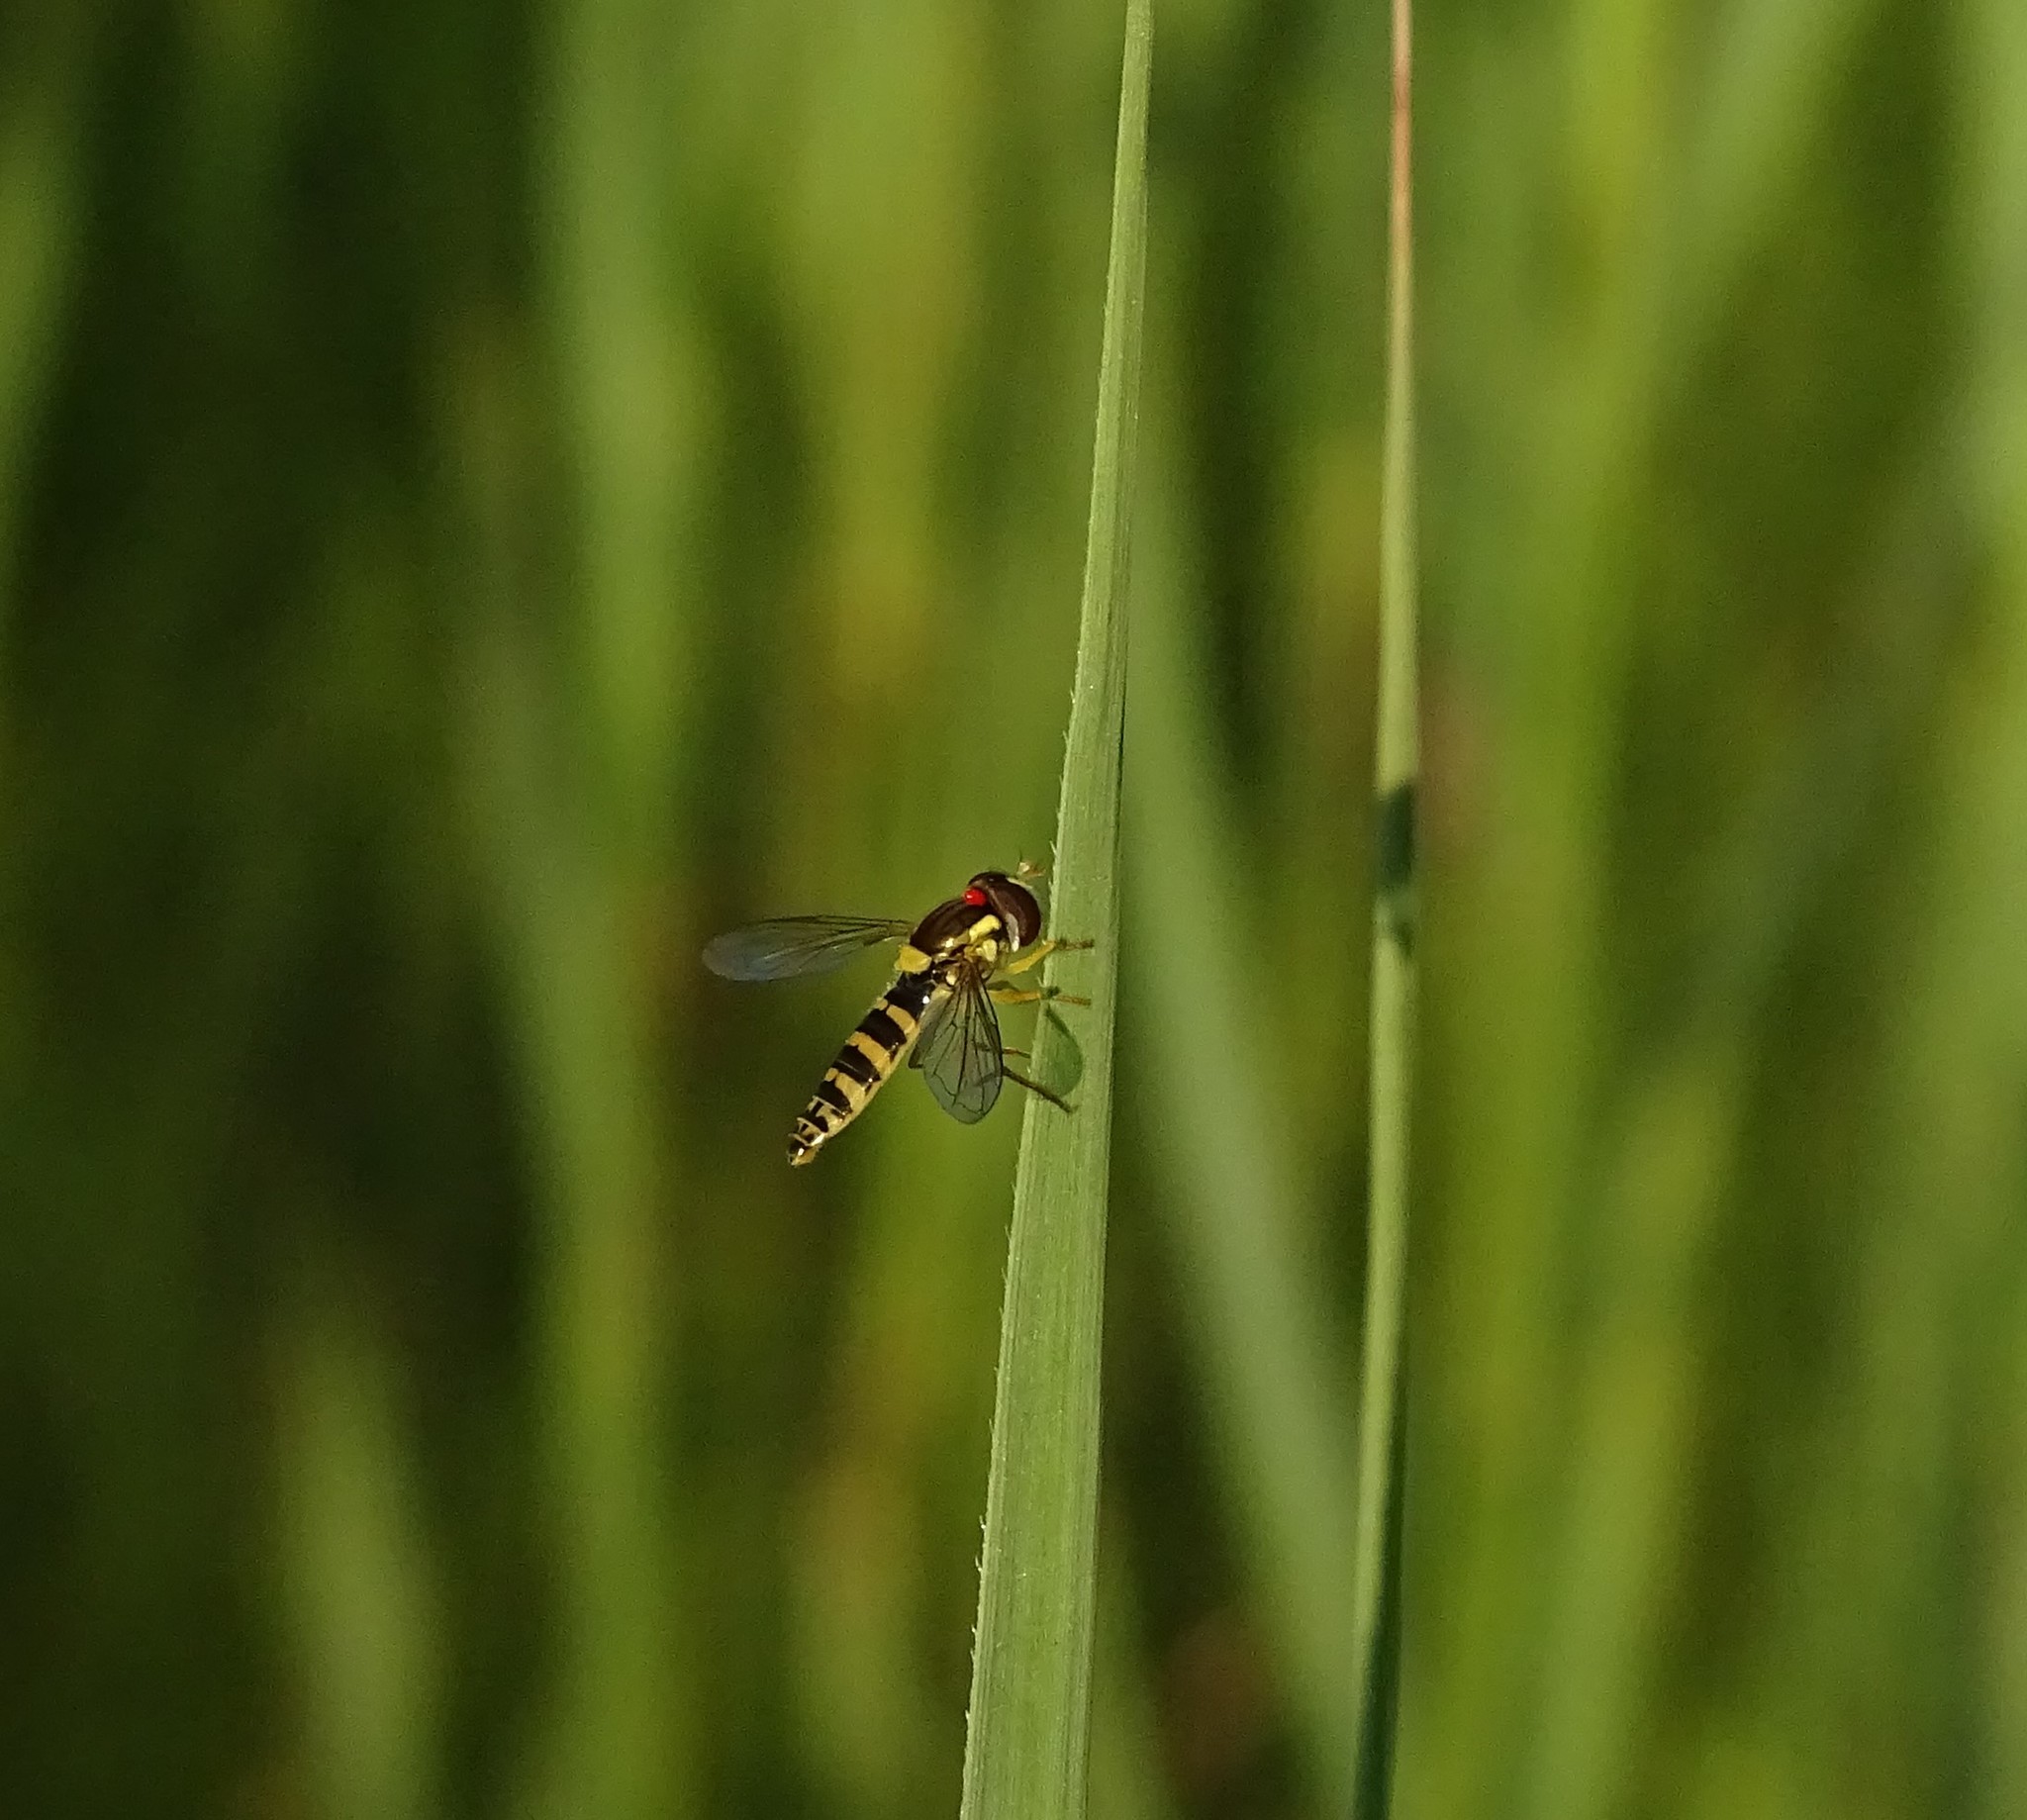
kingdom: Animalia
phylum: Arthropoda
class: Insecta
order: Diptera
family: Syrphidae
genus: Sphaerophoria
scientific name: Sphaerophoria
